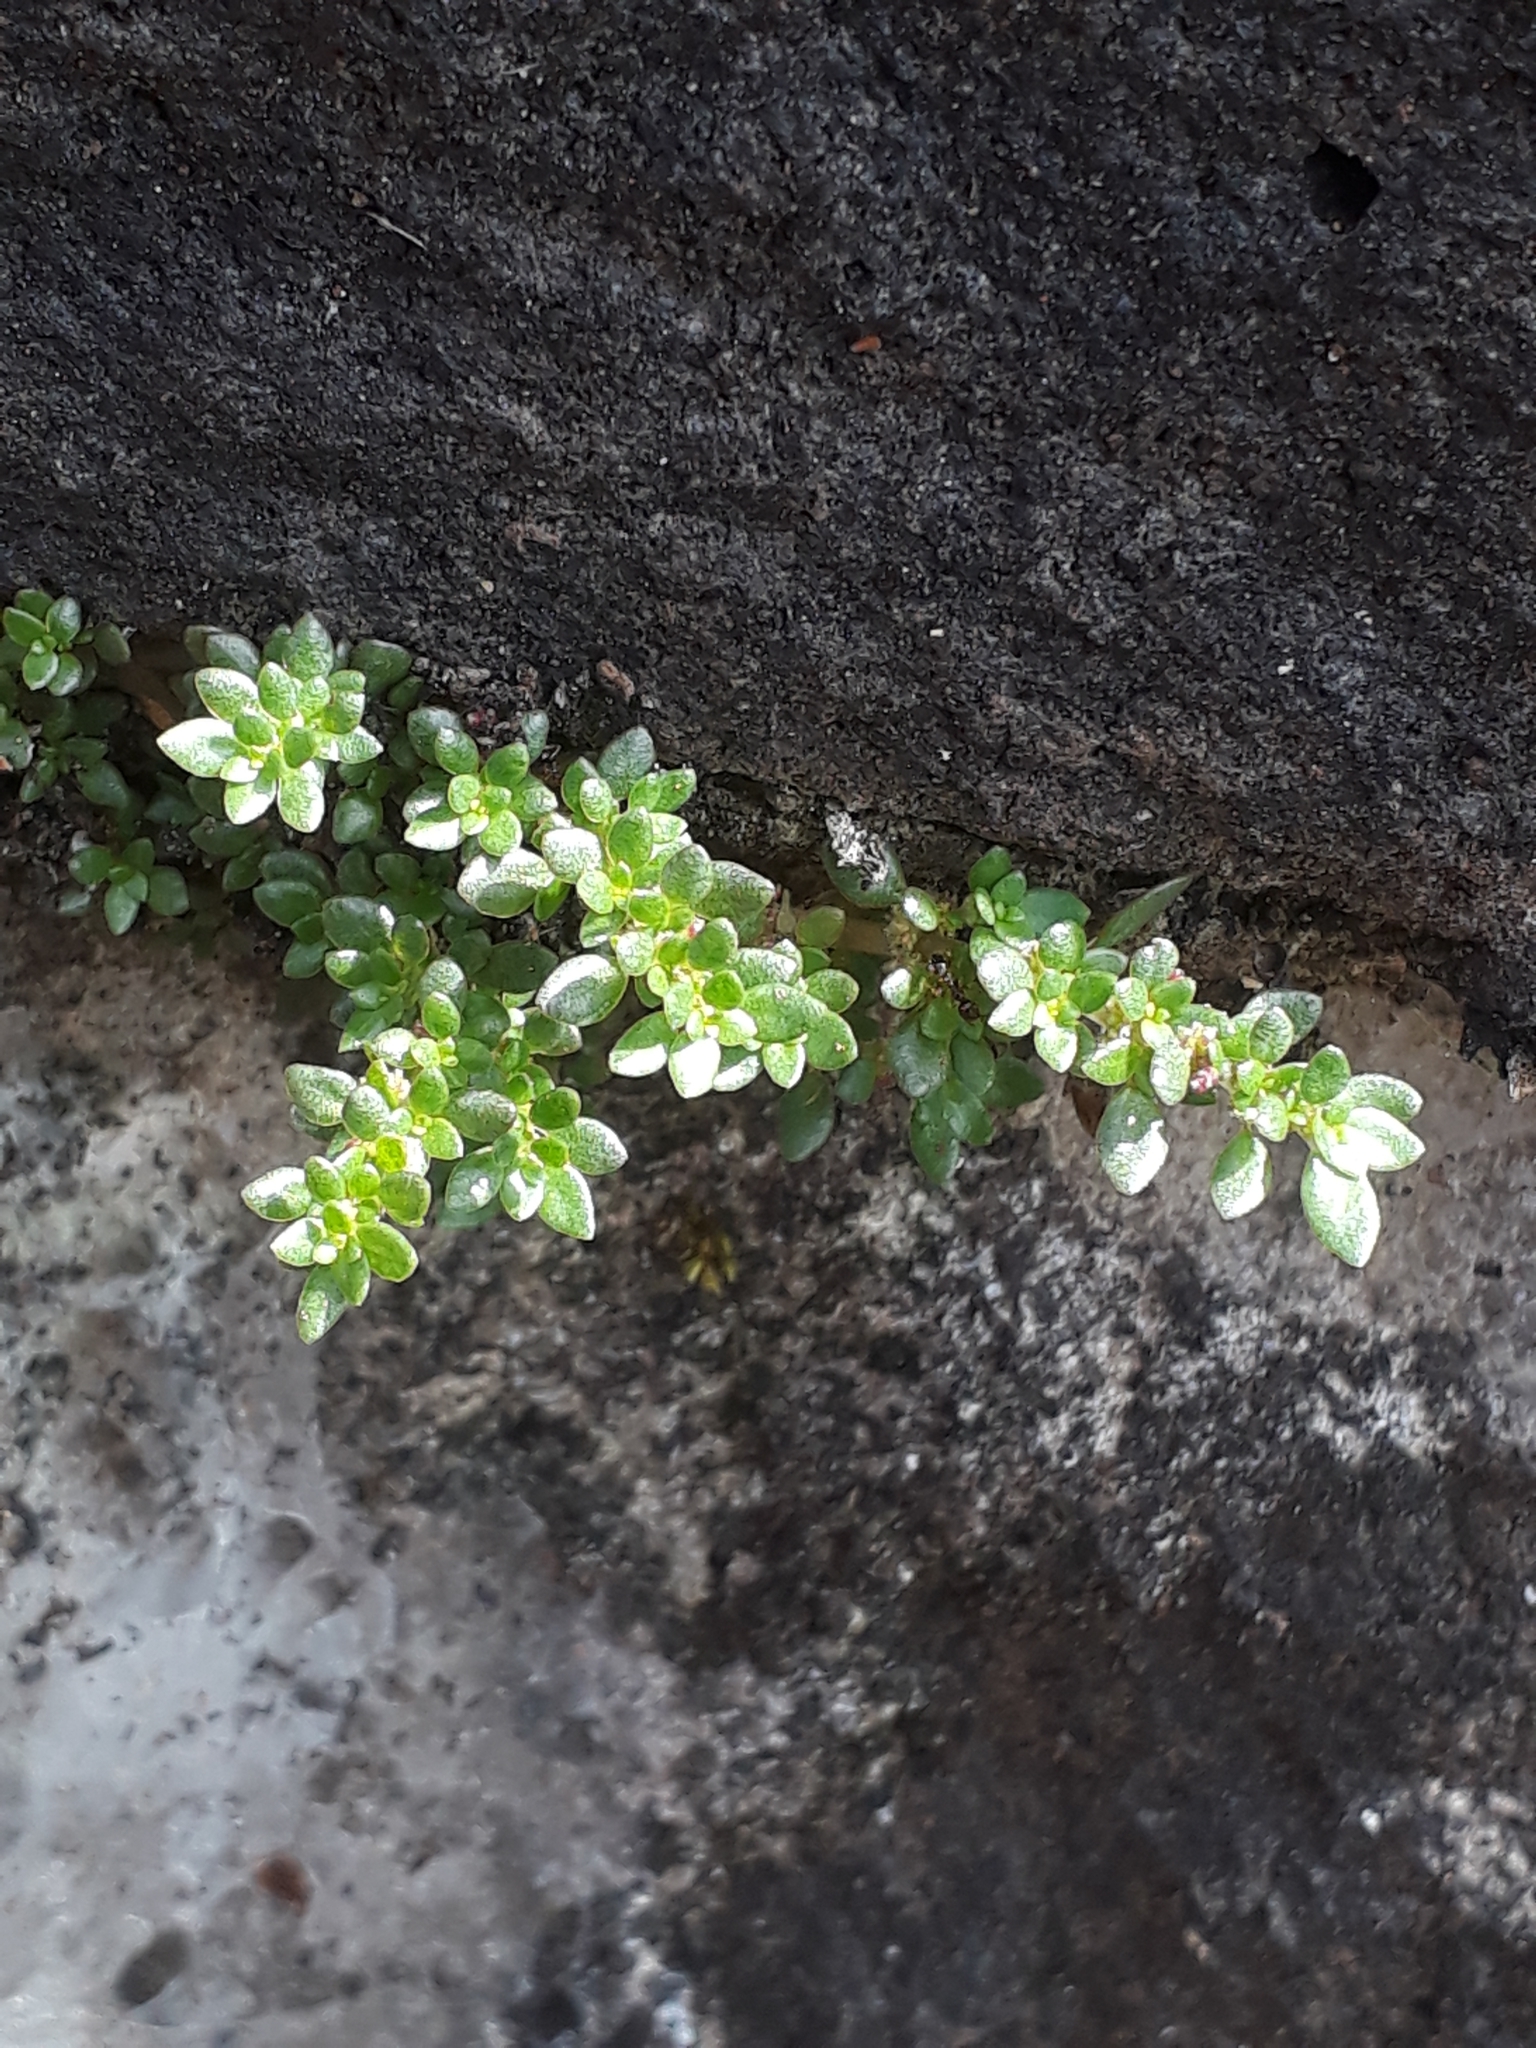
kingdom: Plantae
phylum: Tracheophyta
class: Magnoliopsida
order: Rosales
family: Urticaceae
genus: Pilea
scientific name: Pilea microphylla
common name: Artillery-plant
